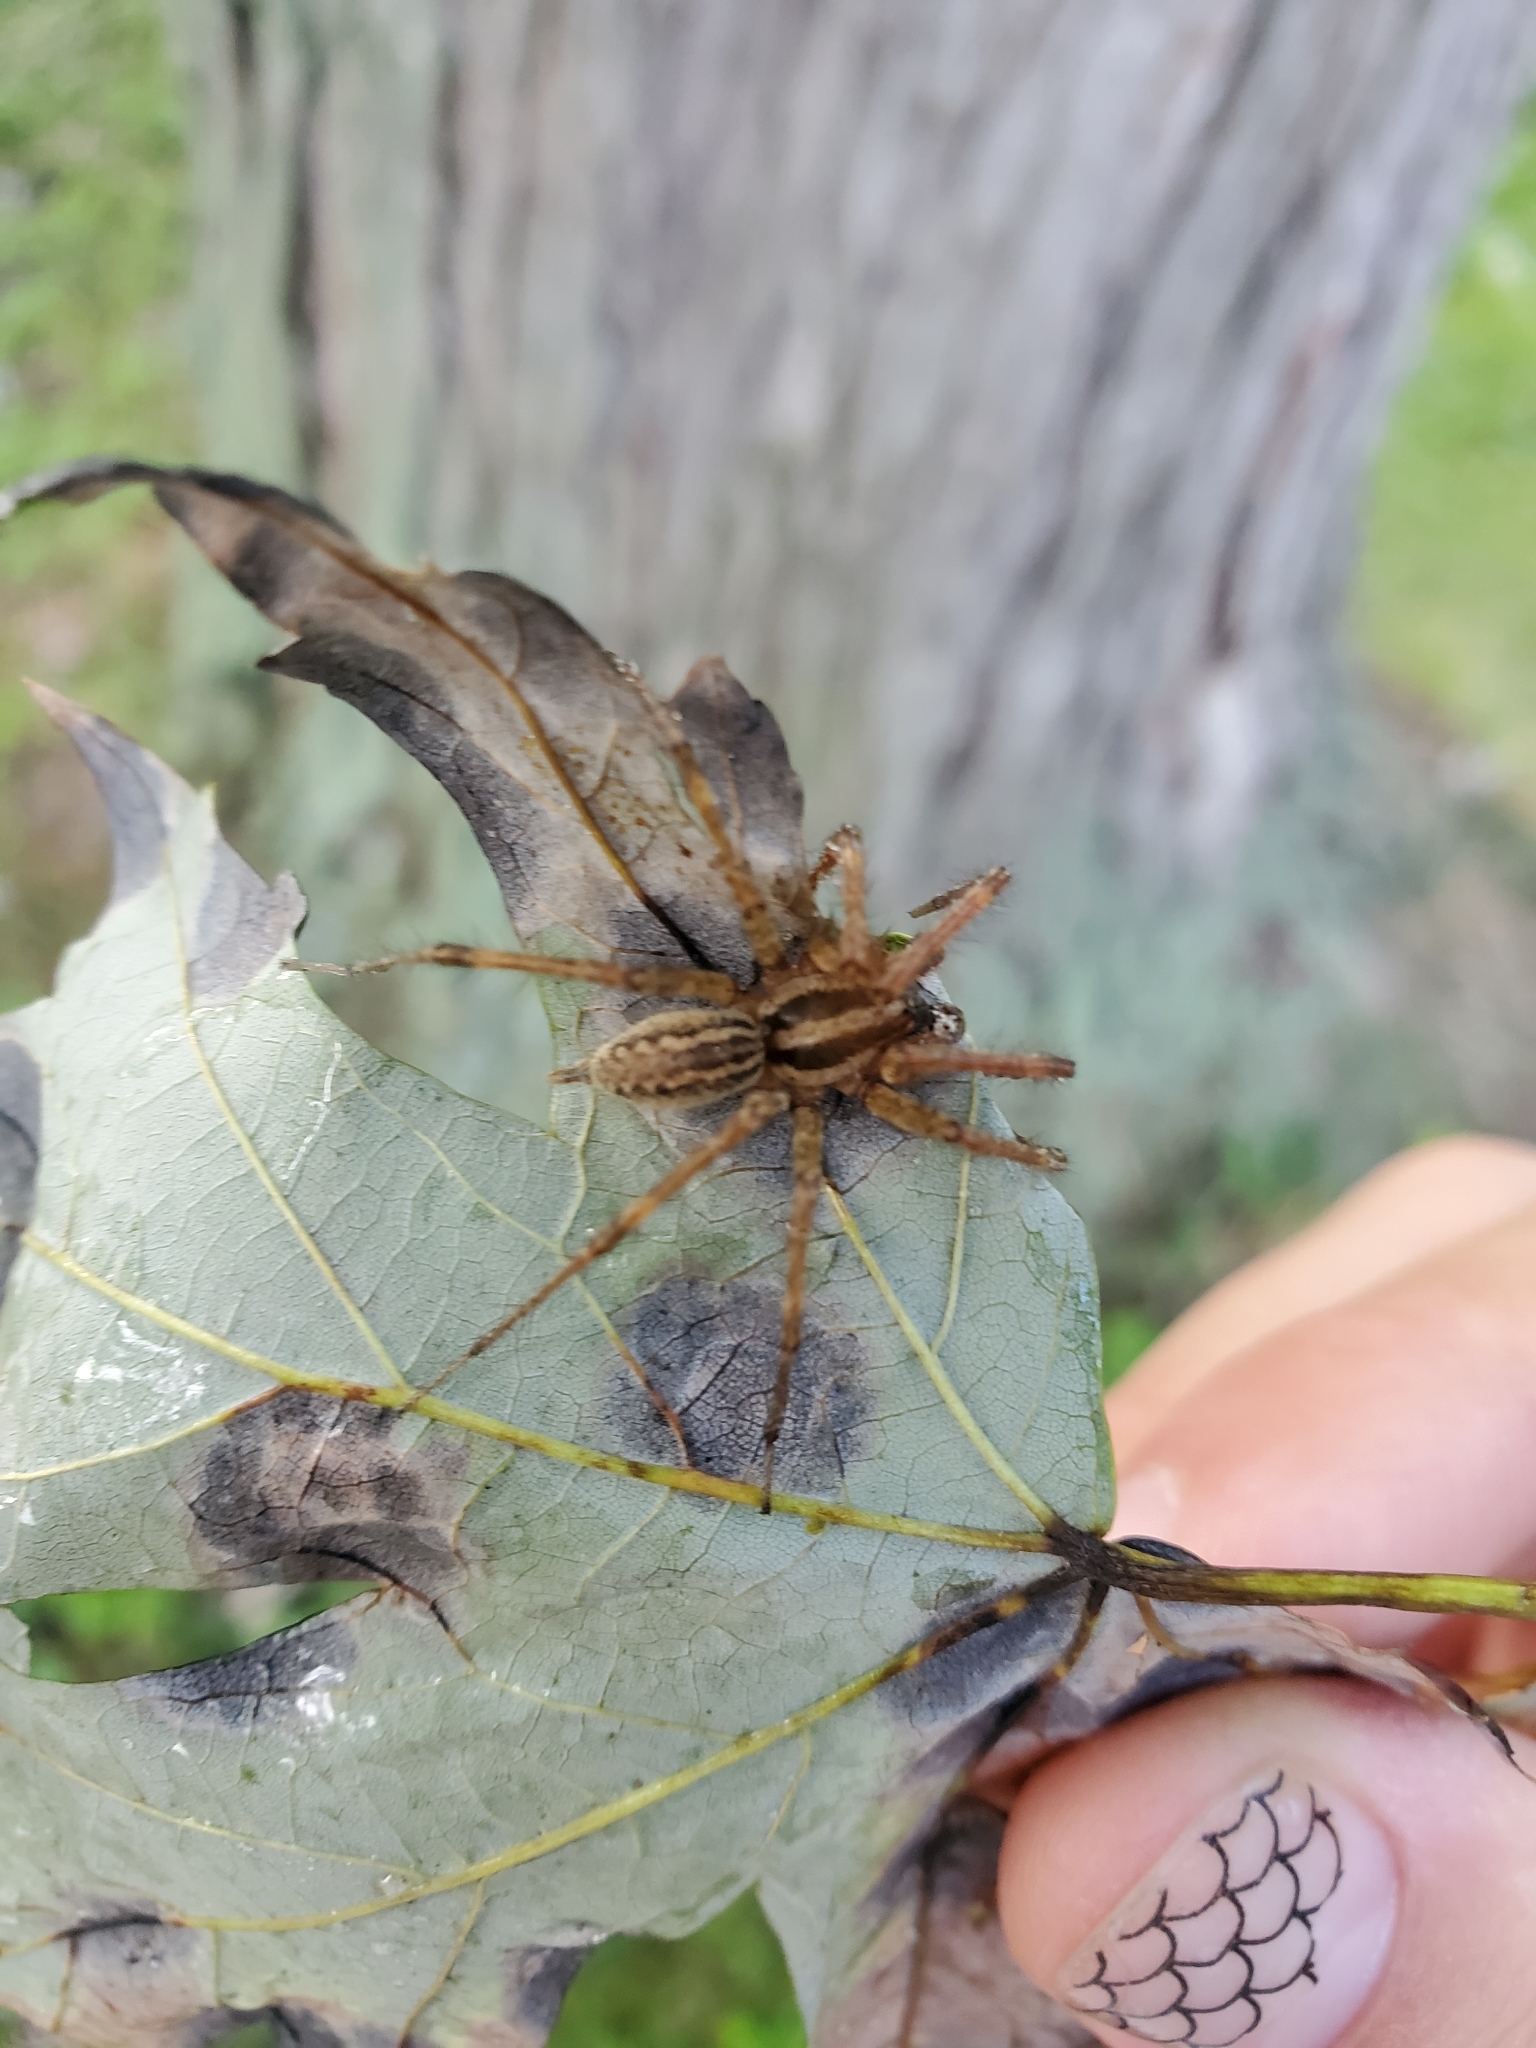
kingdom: Animalia
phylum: Arthropoda
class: Arachnida
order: Araneae
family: Agelenidae
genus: Agelenopsis
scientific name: Agelenopsis
